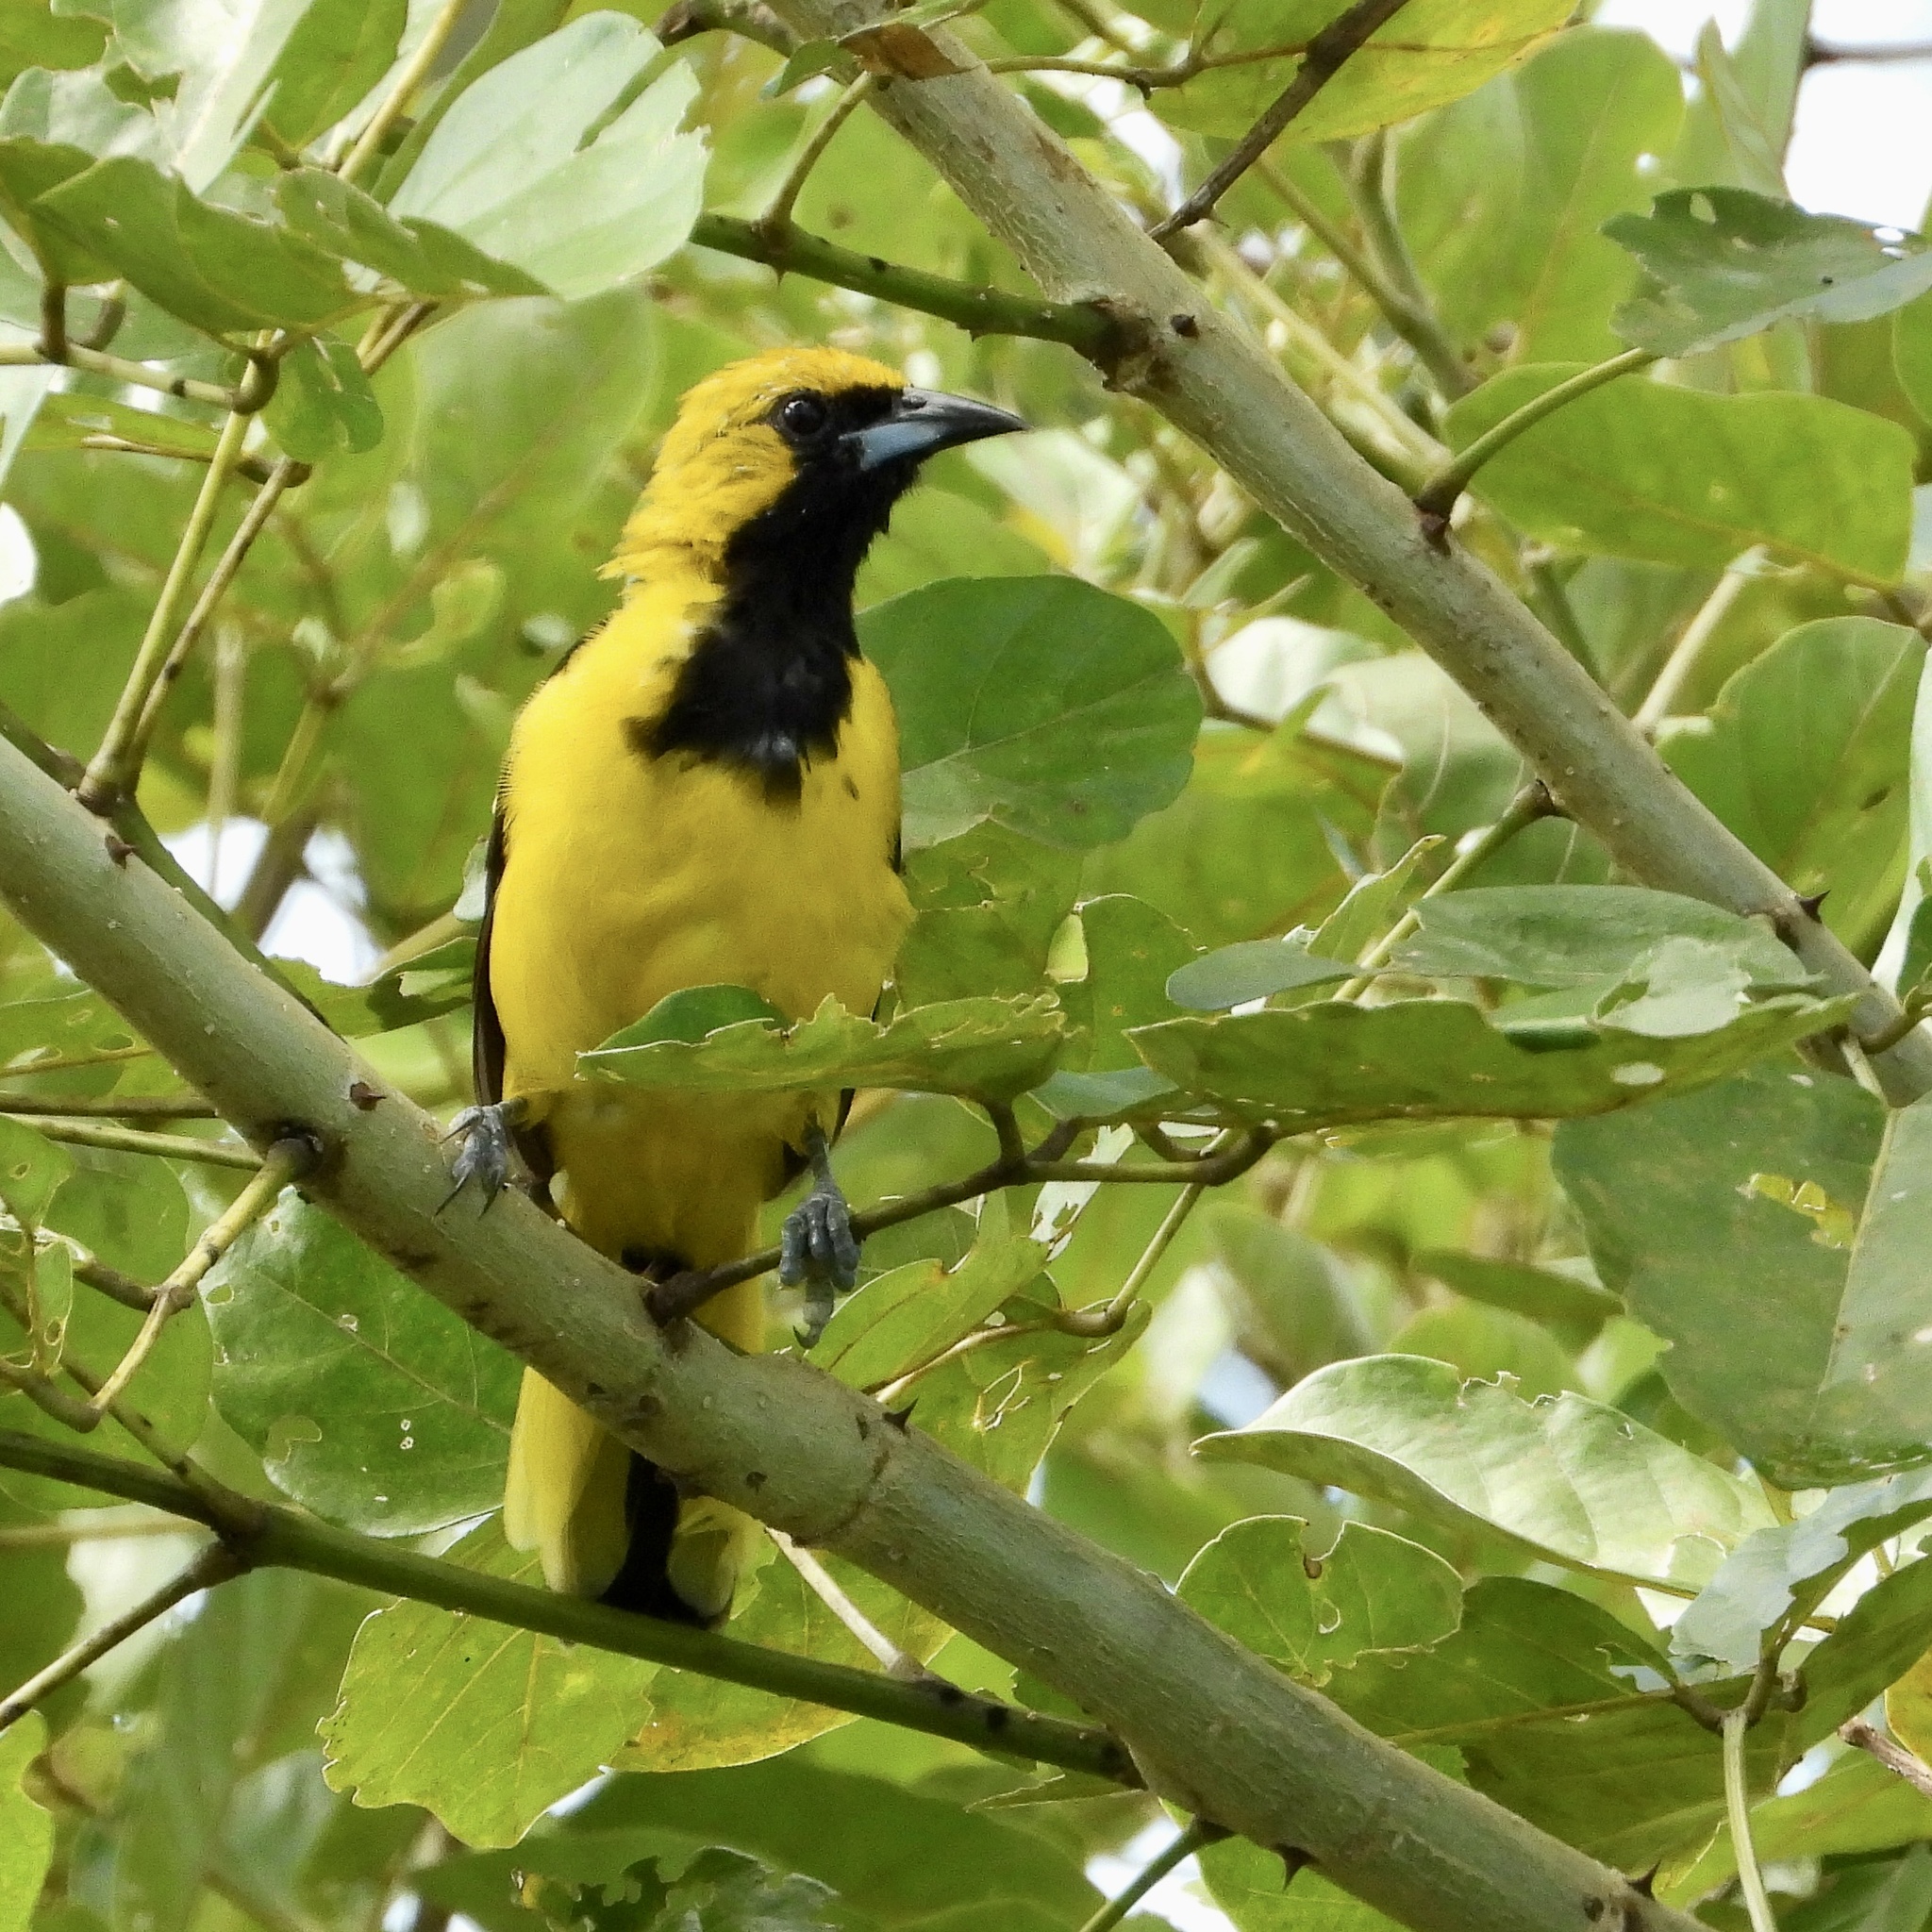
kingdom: Animalia
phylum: Chordata
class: Aves
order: Passeriformes
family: Icteridae
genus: Icterus
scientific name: Icterus mesomelas
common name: Yellow-tailed oriole
